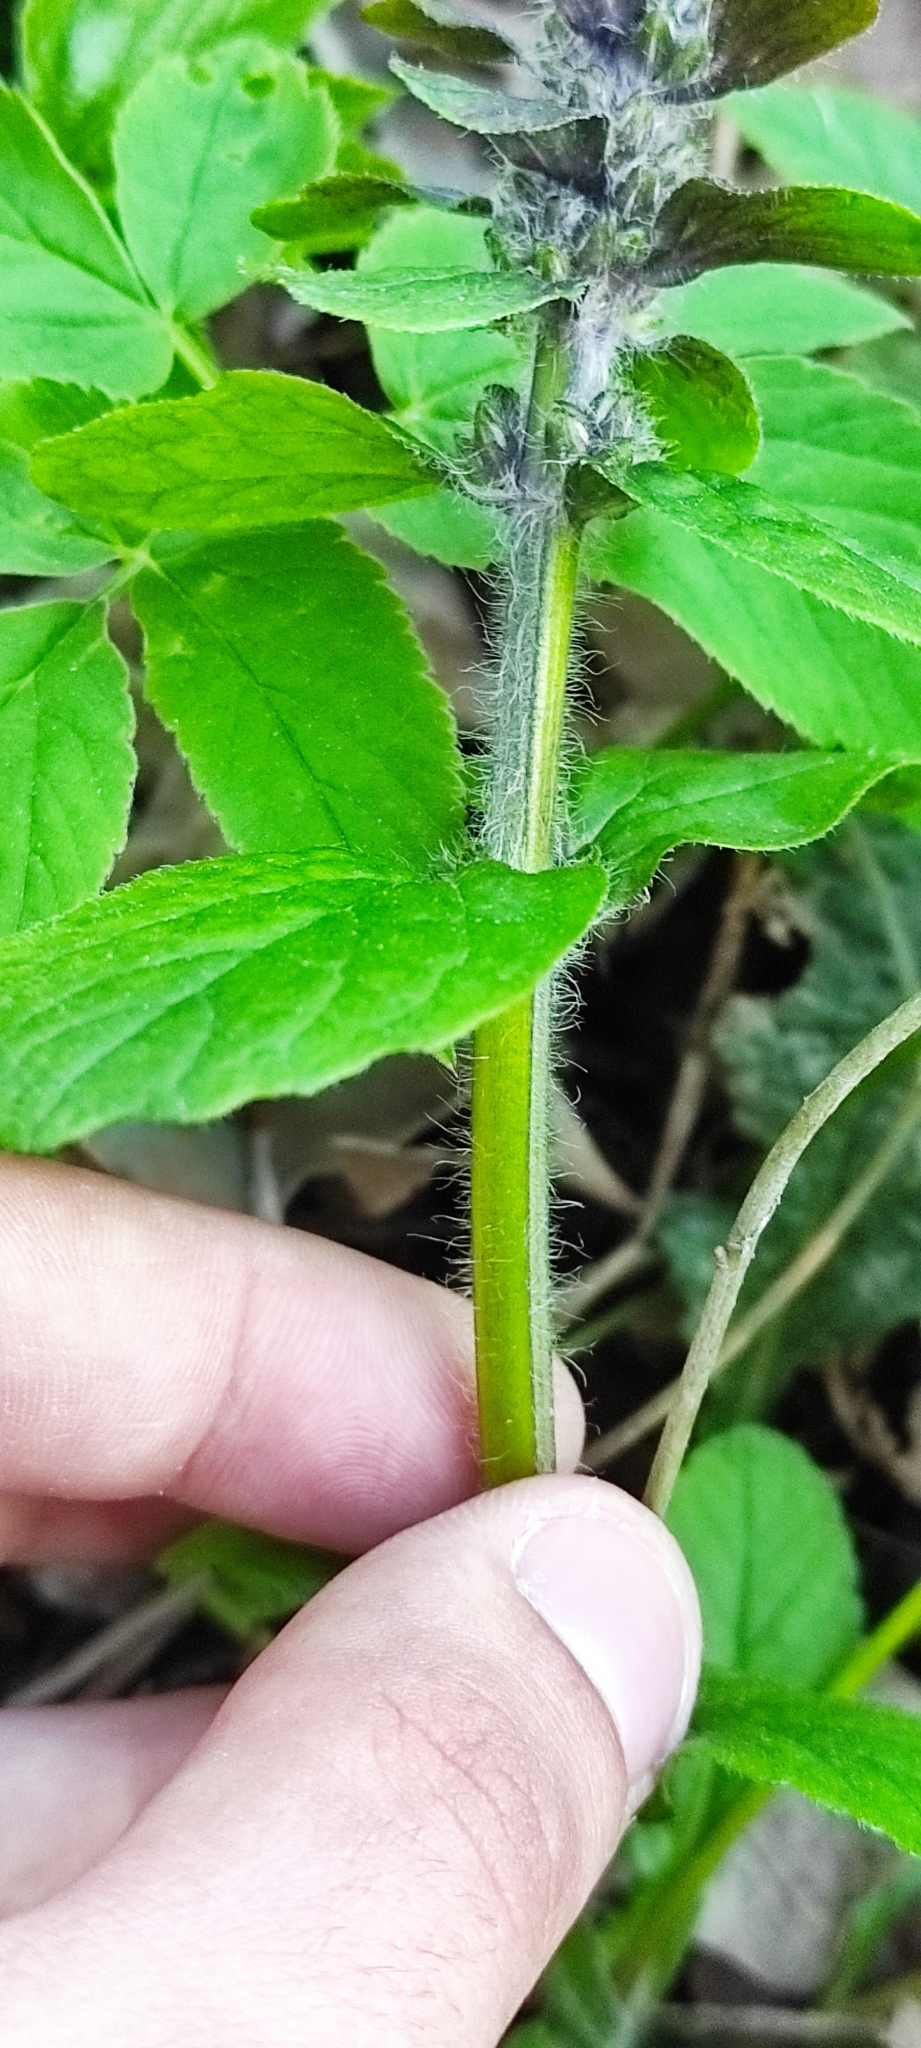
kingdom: Plantae
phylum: Tracheophyta
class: Magnoliopsida
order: Lamiales
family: Lamiaceae
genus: Ajuga
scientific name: Ajuga reptans
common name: Bugle
